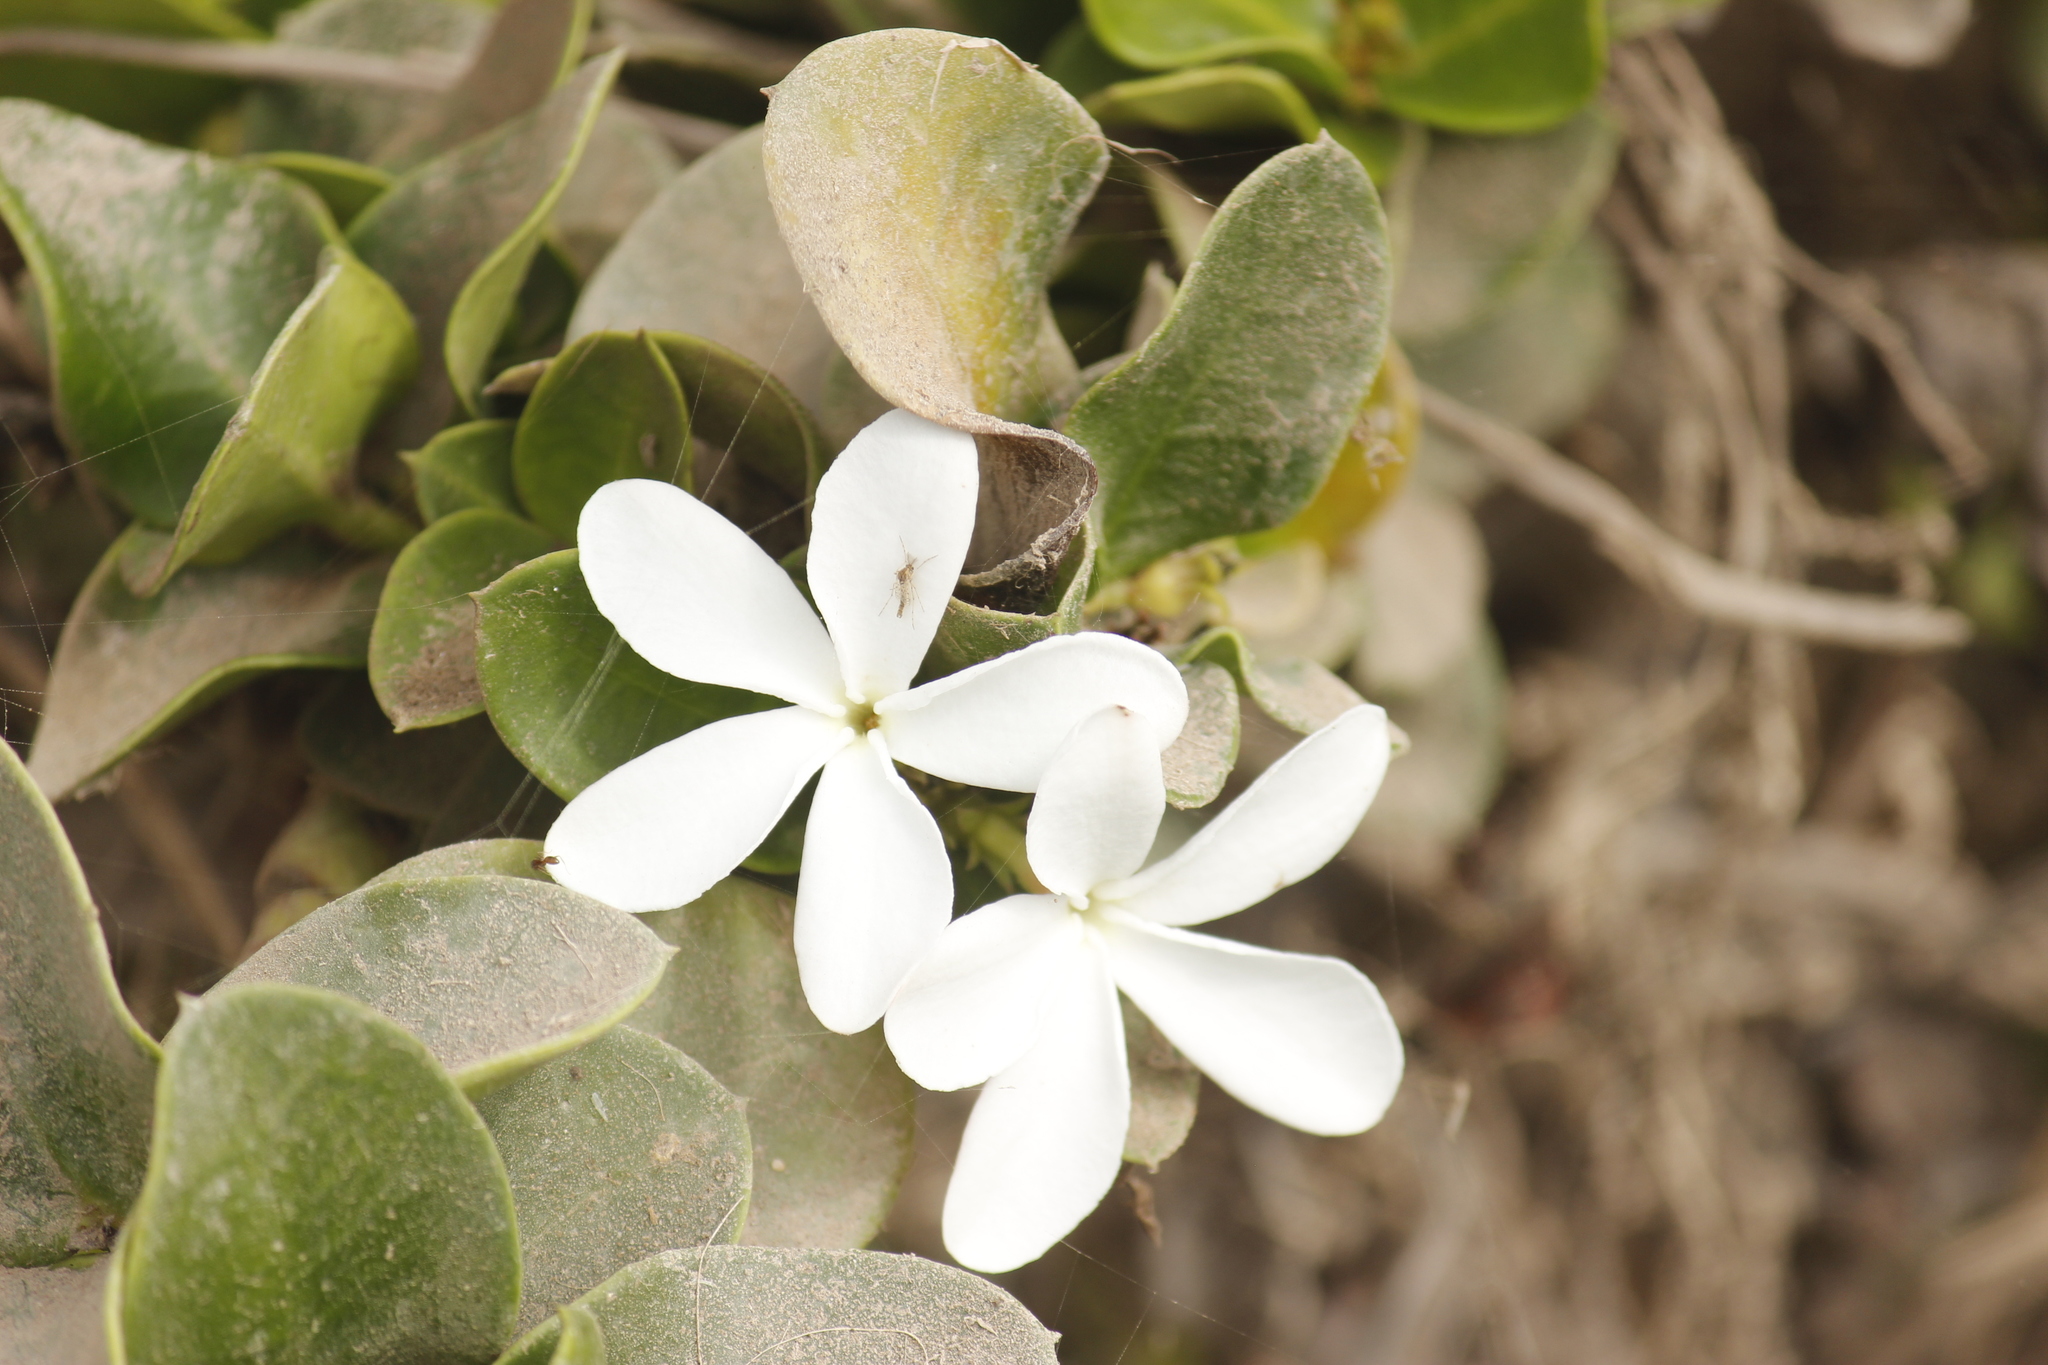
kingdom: Plantae
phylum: Tracheophyta
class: Magnoliopsida
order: Gentianales
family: Apocynaceae
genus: Carissa
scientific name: Carissa macrocarpa
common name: Natal plum
